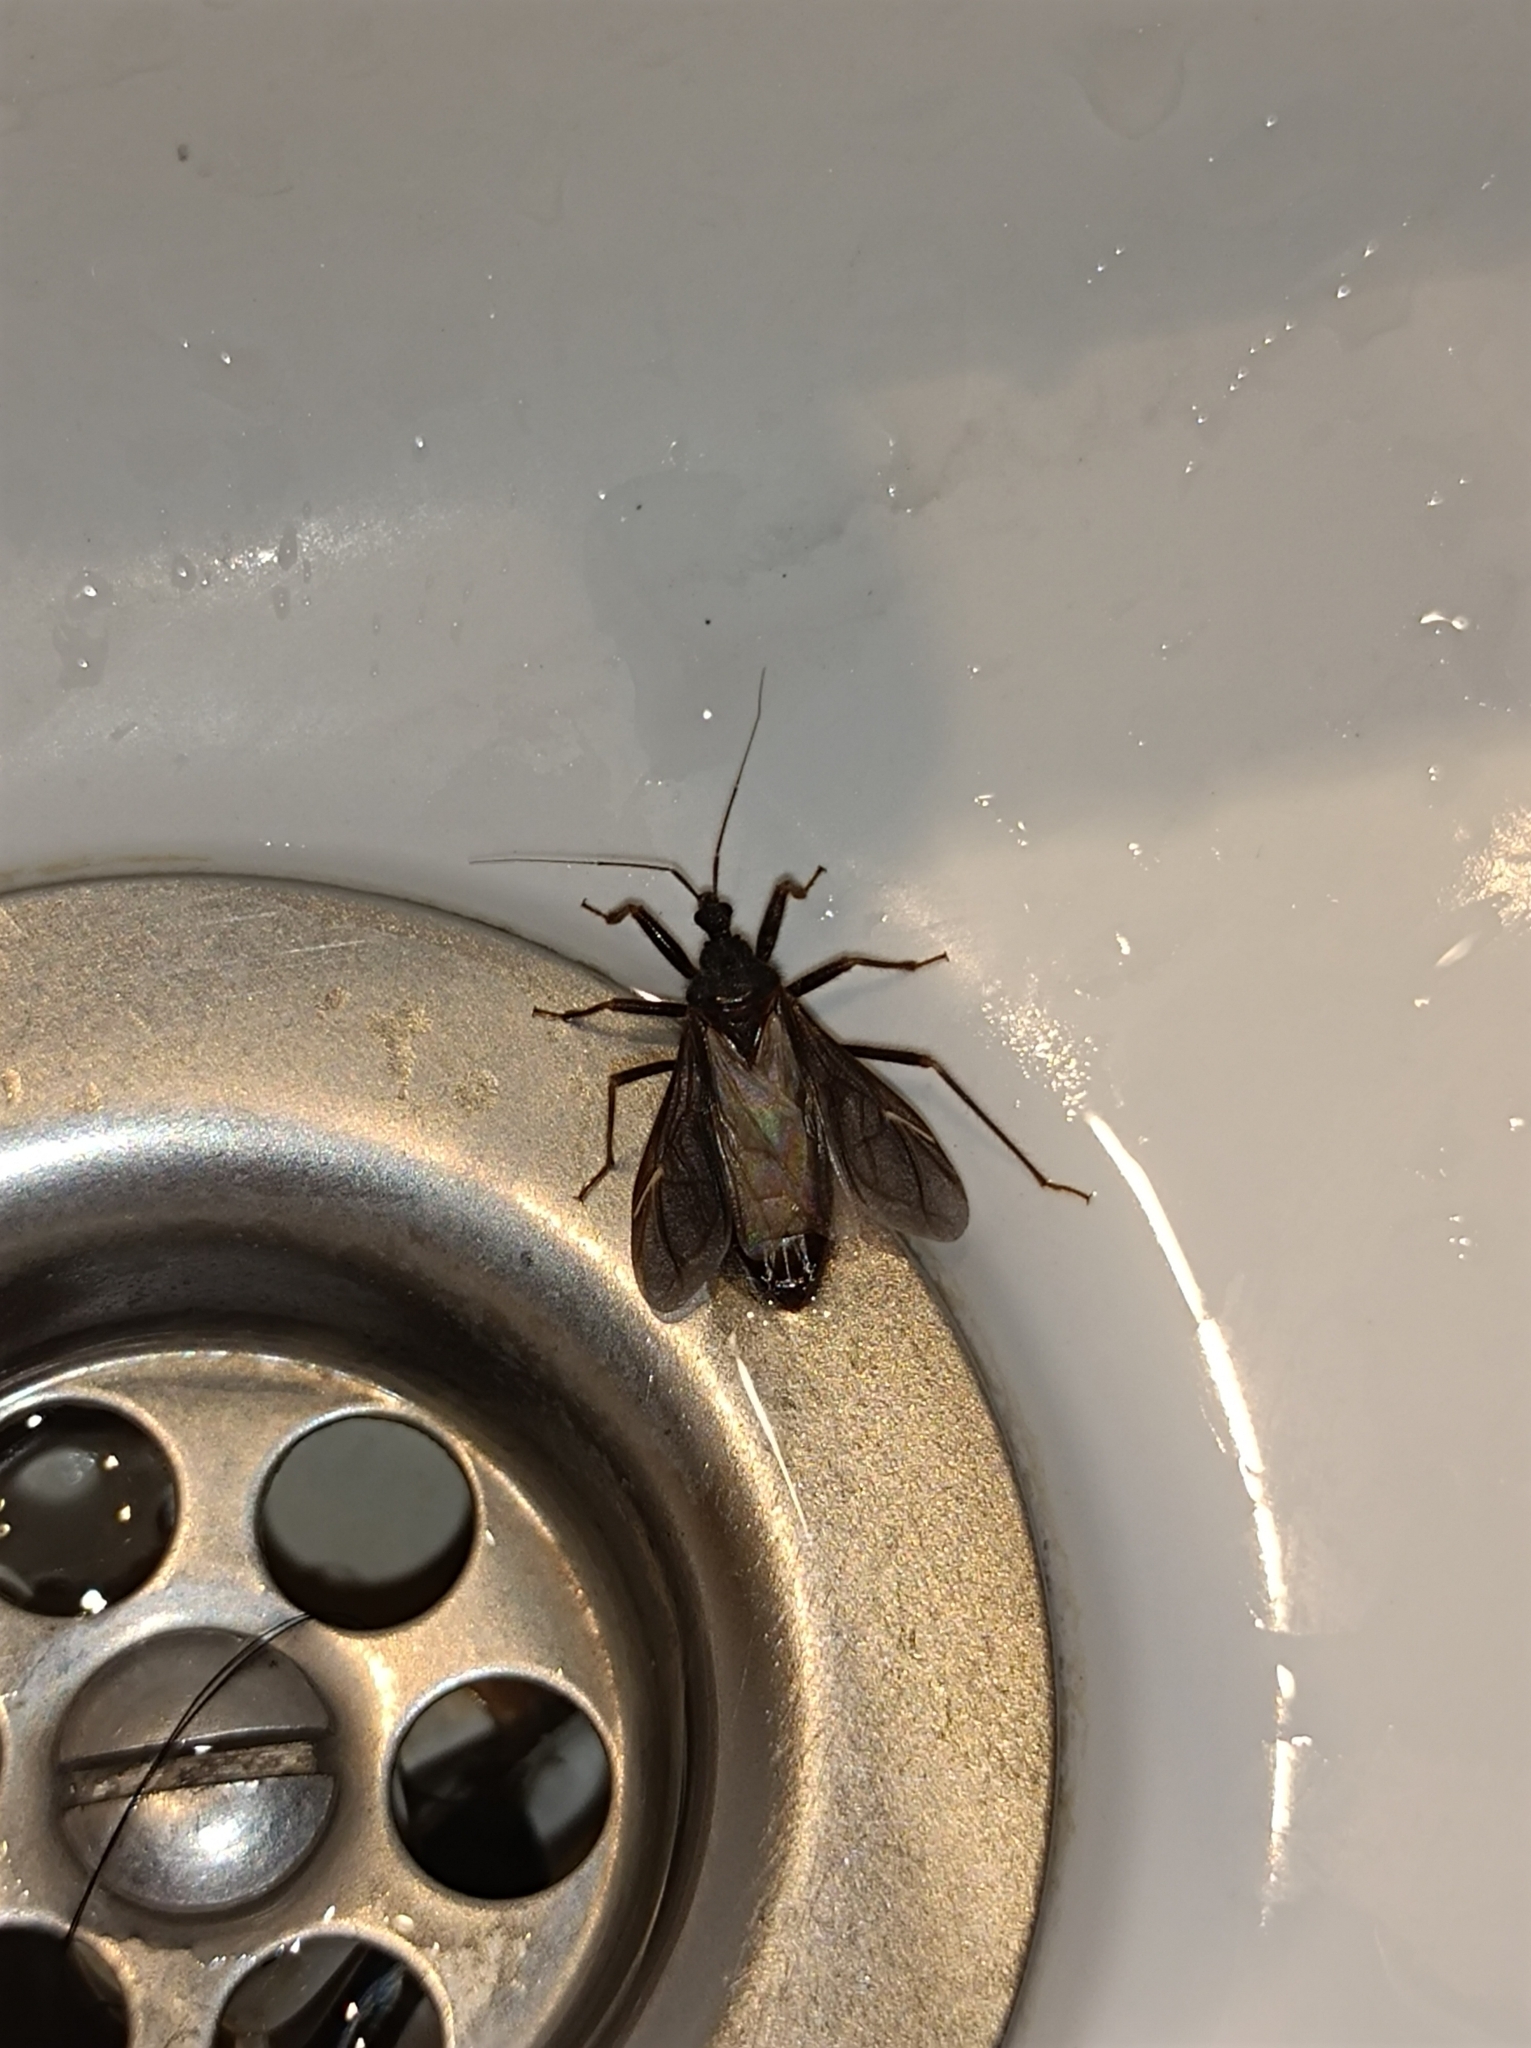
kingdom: Animalia
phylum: Arthropoda
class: Insecta
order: Hemiptera
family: Reduviidae
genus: Reduvius
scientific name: Reduvius personatus
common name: Masked hunter
